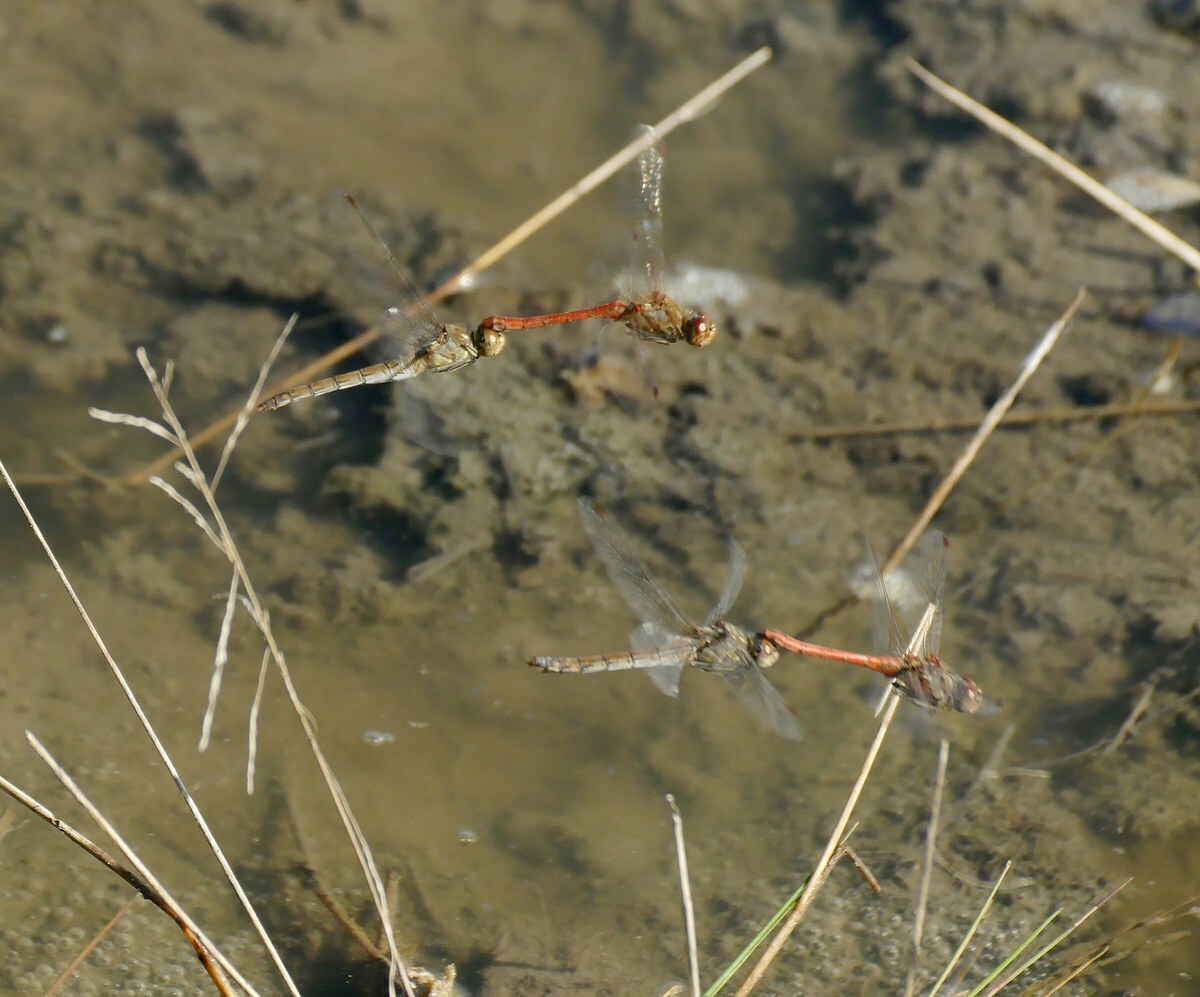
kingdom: Animalia
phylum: Arthropoda
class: Insecta
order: Odonata
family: Libellulidae
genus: Sympetrum
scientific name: Sympetrum striolatum
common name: Common darter
